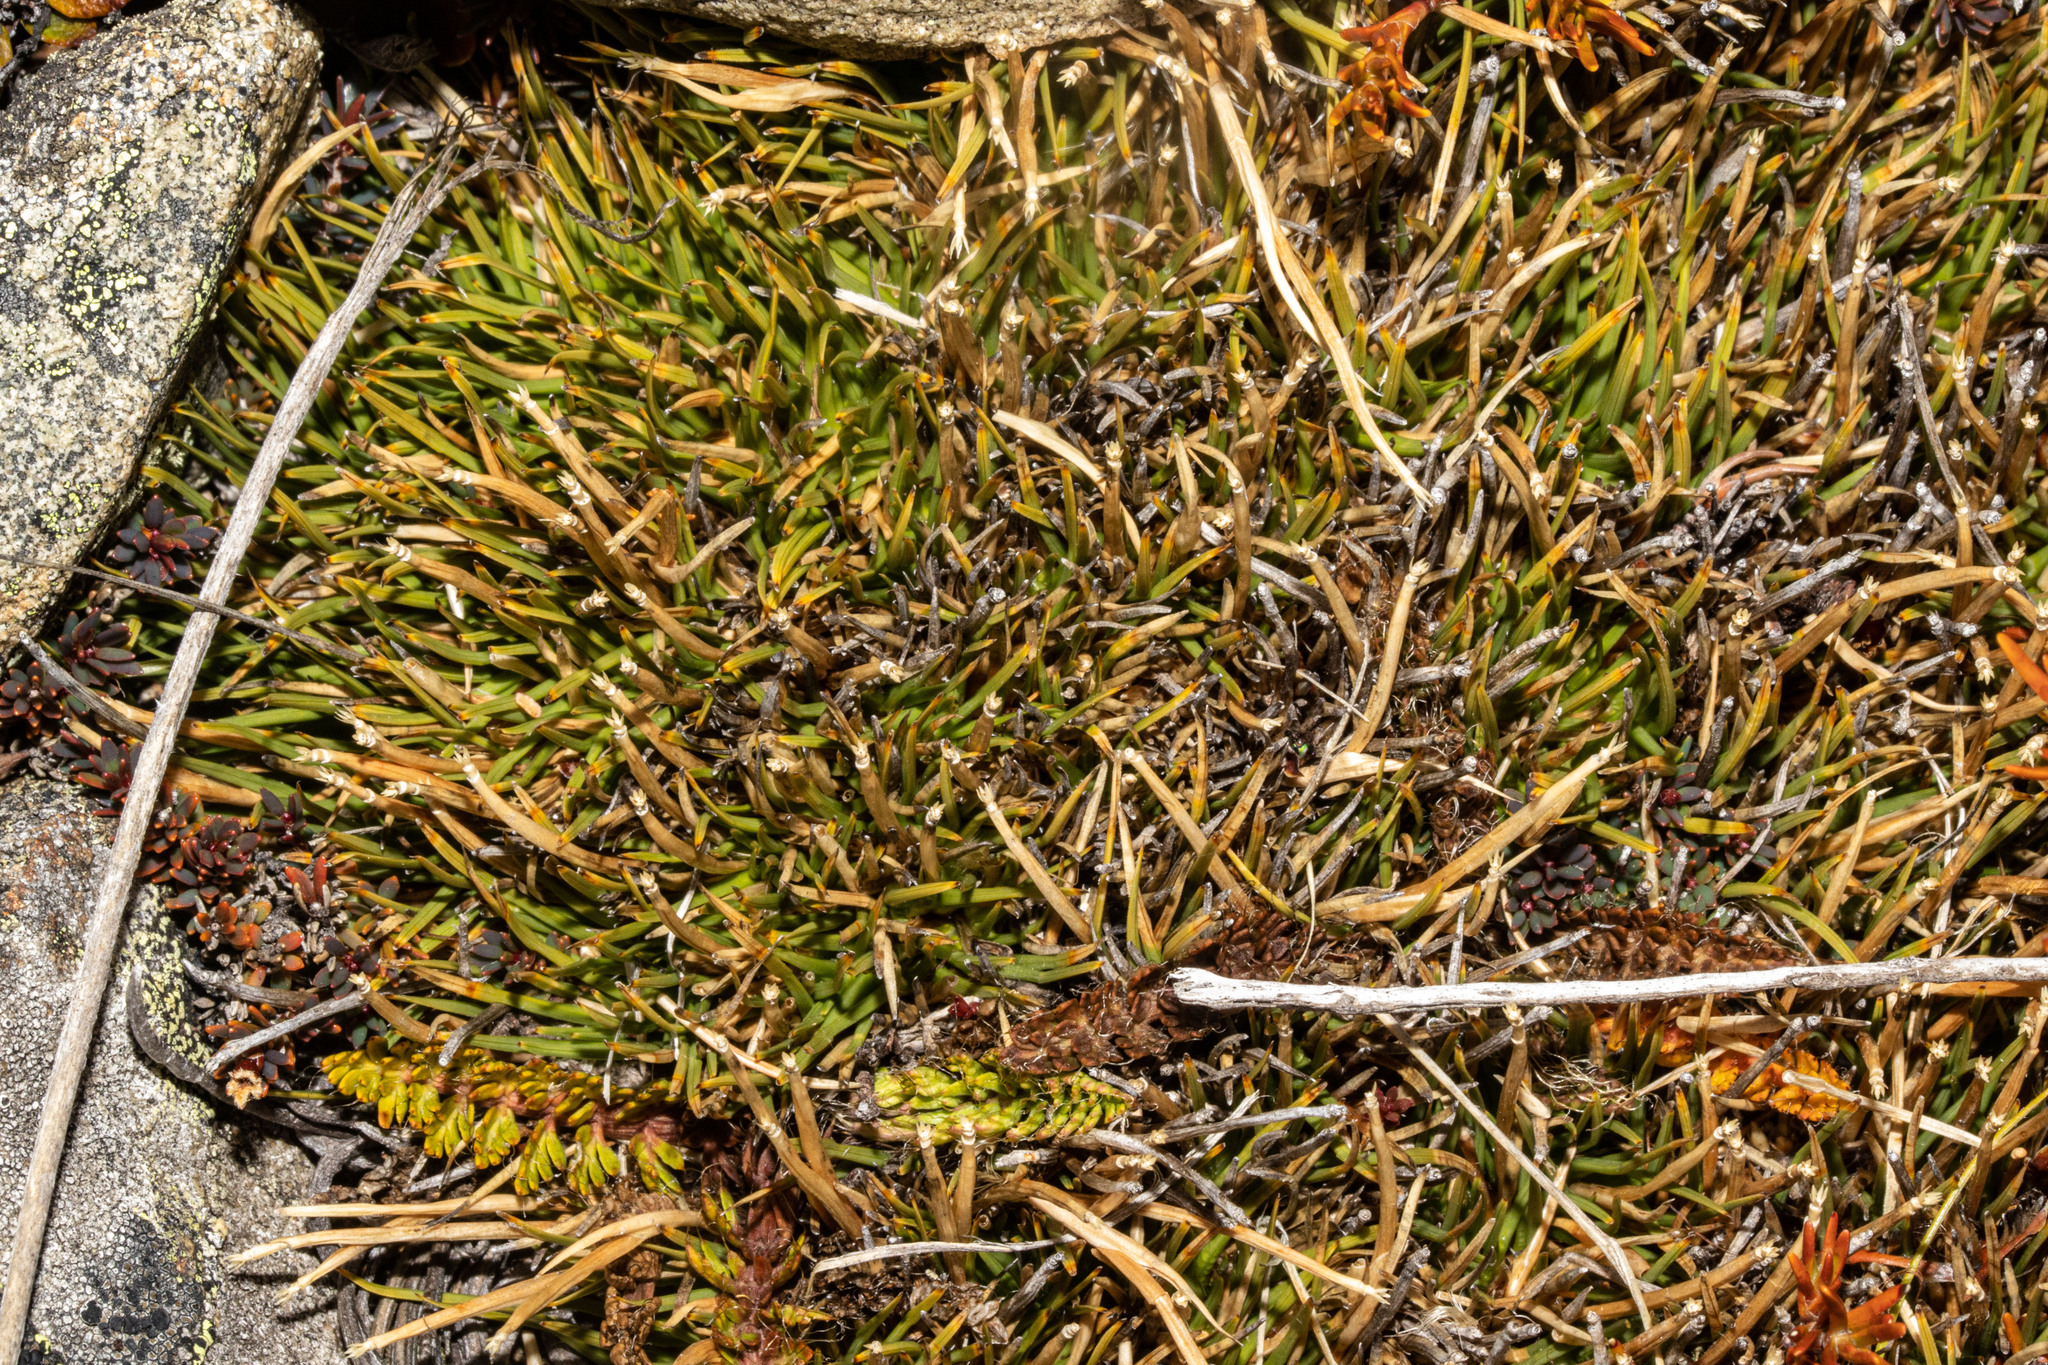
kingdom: Plantae
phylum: Tracheophyta
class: Liliopsida
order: Poales
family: Cyperaceae
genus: Oreobolus
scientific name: Oreobolus impar
